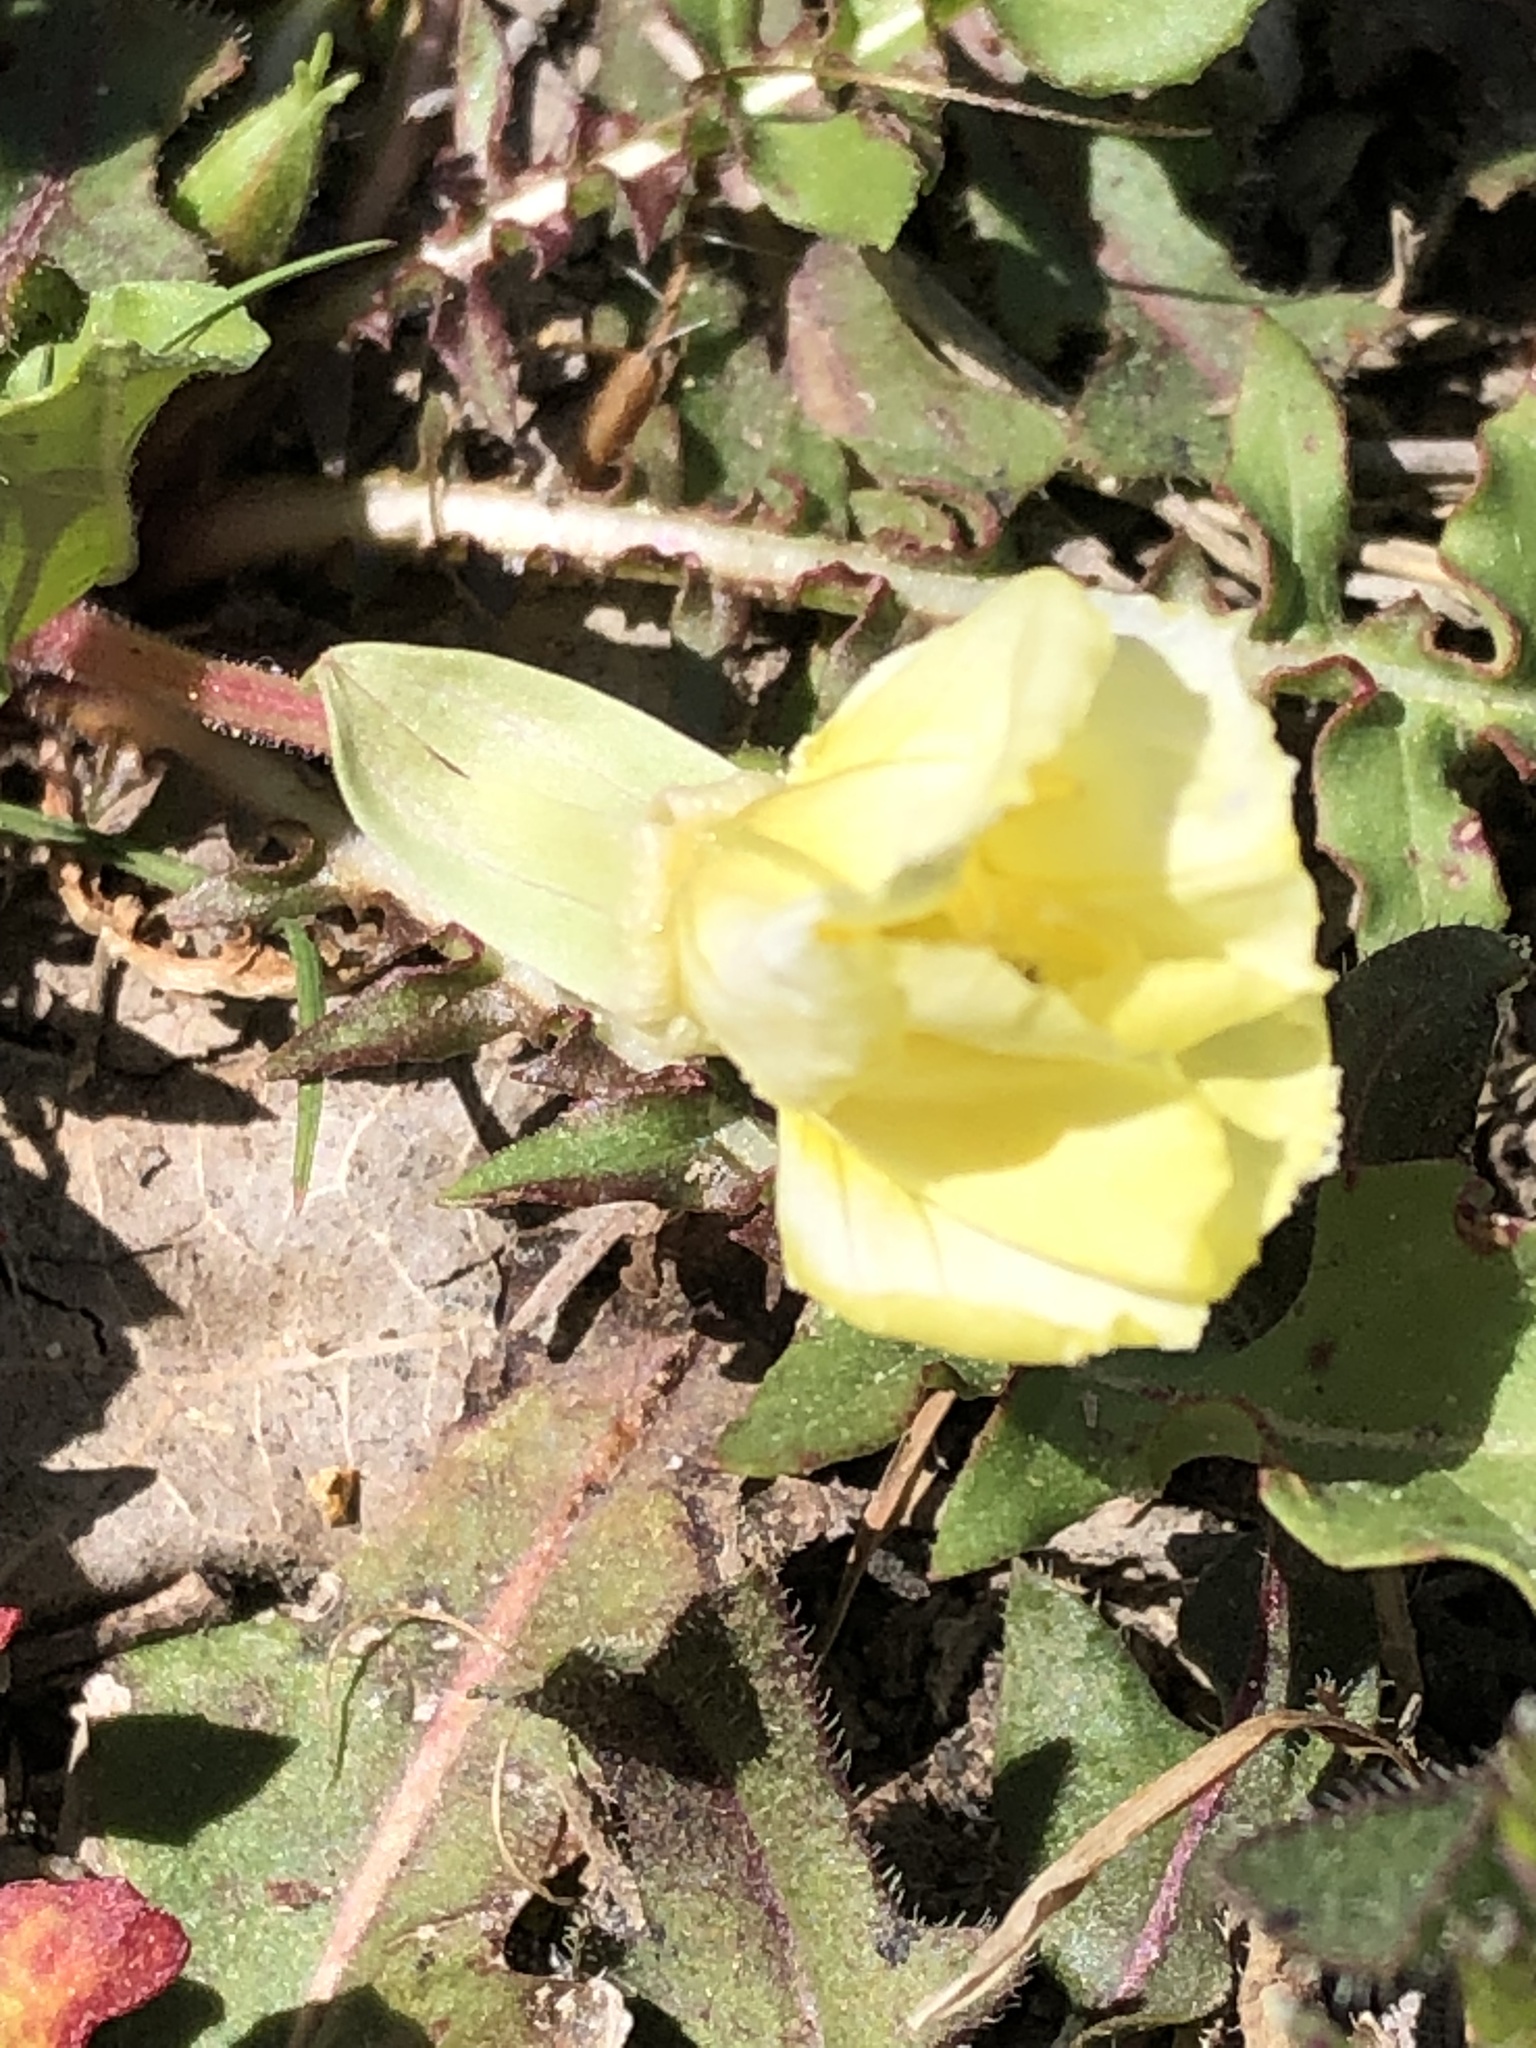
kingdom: Plantae
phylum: Tracheophyta
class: Magnoliopsida
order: Myrtales
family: Onagraceae
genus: Oenothera
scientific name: Oenothera triloba
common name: Sessile evening-primrose
